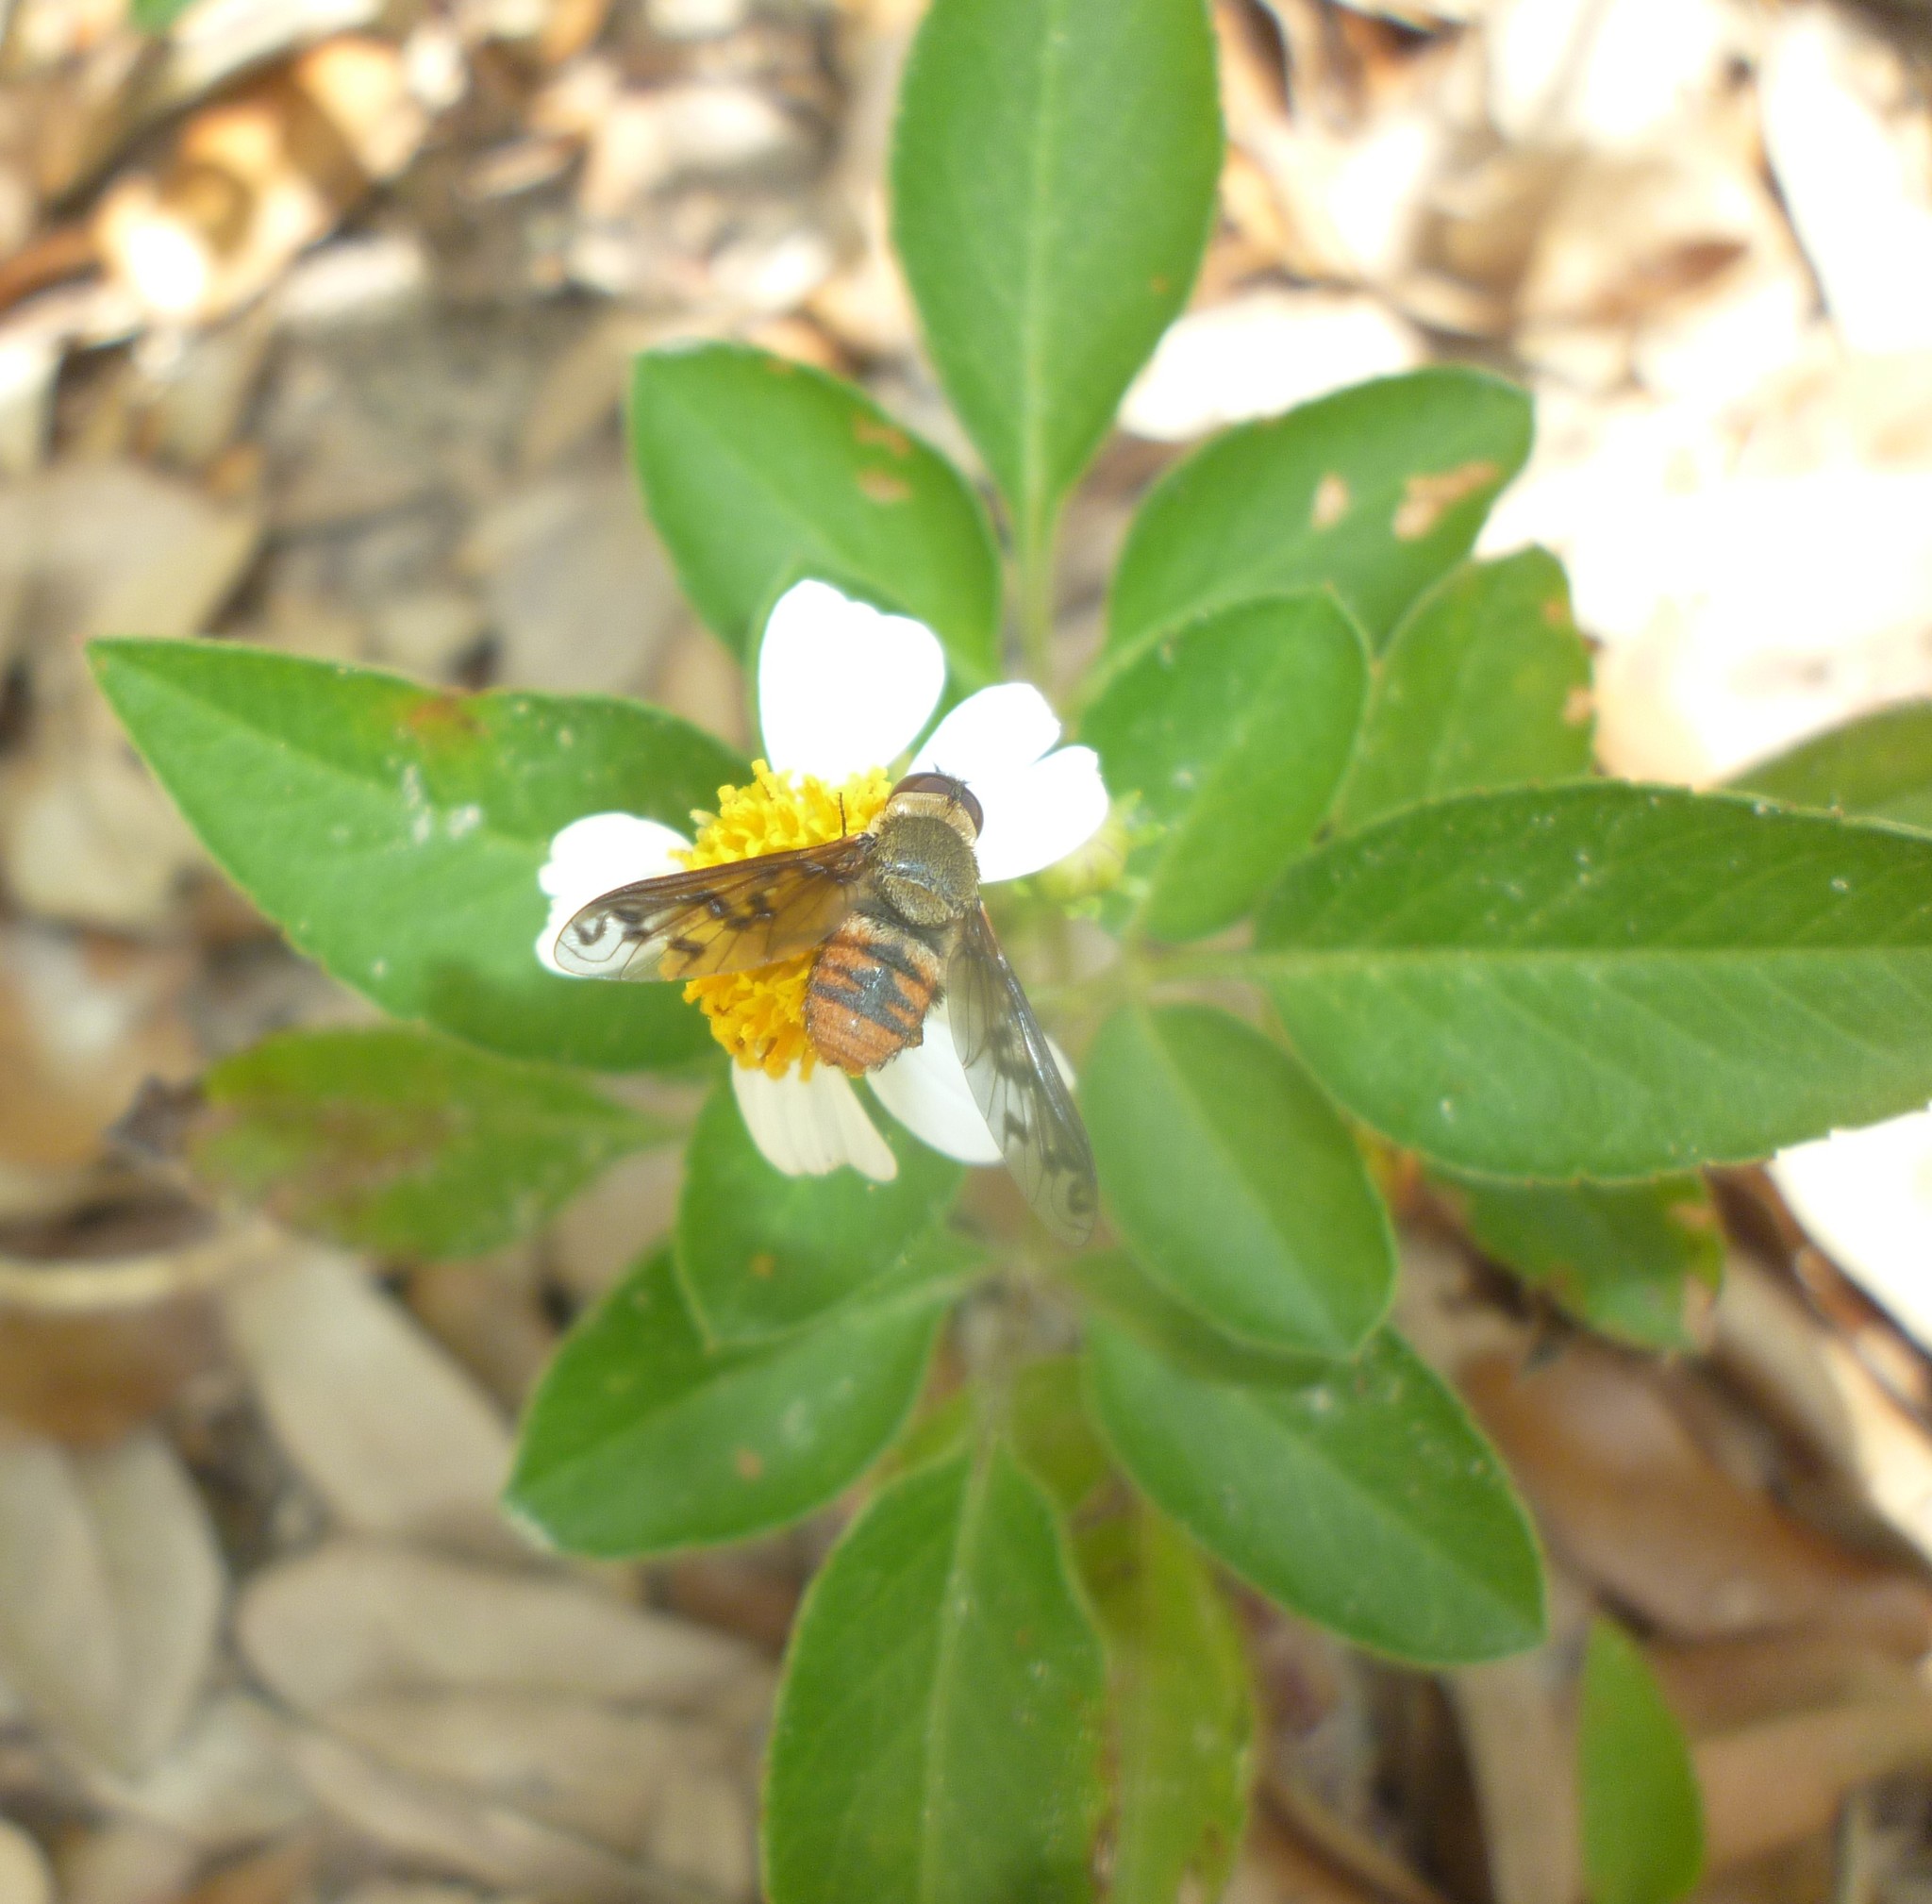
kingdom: Plantae
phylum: Tracheophyta
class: Magnoliopsida
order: Asterales
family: Asteraceae
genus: Bidens
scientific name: Bidens alba
